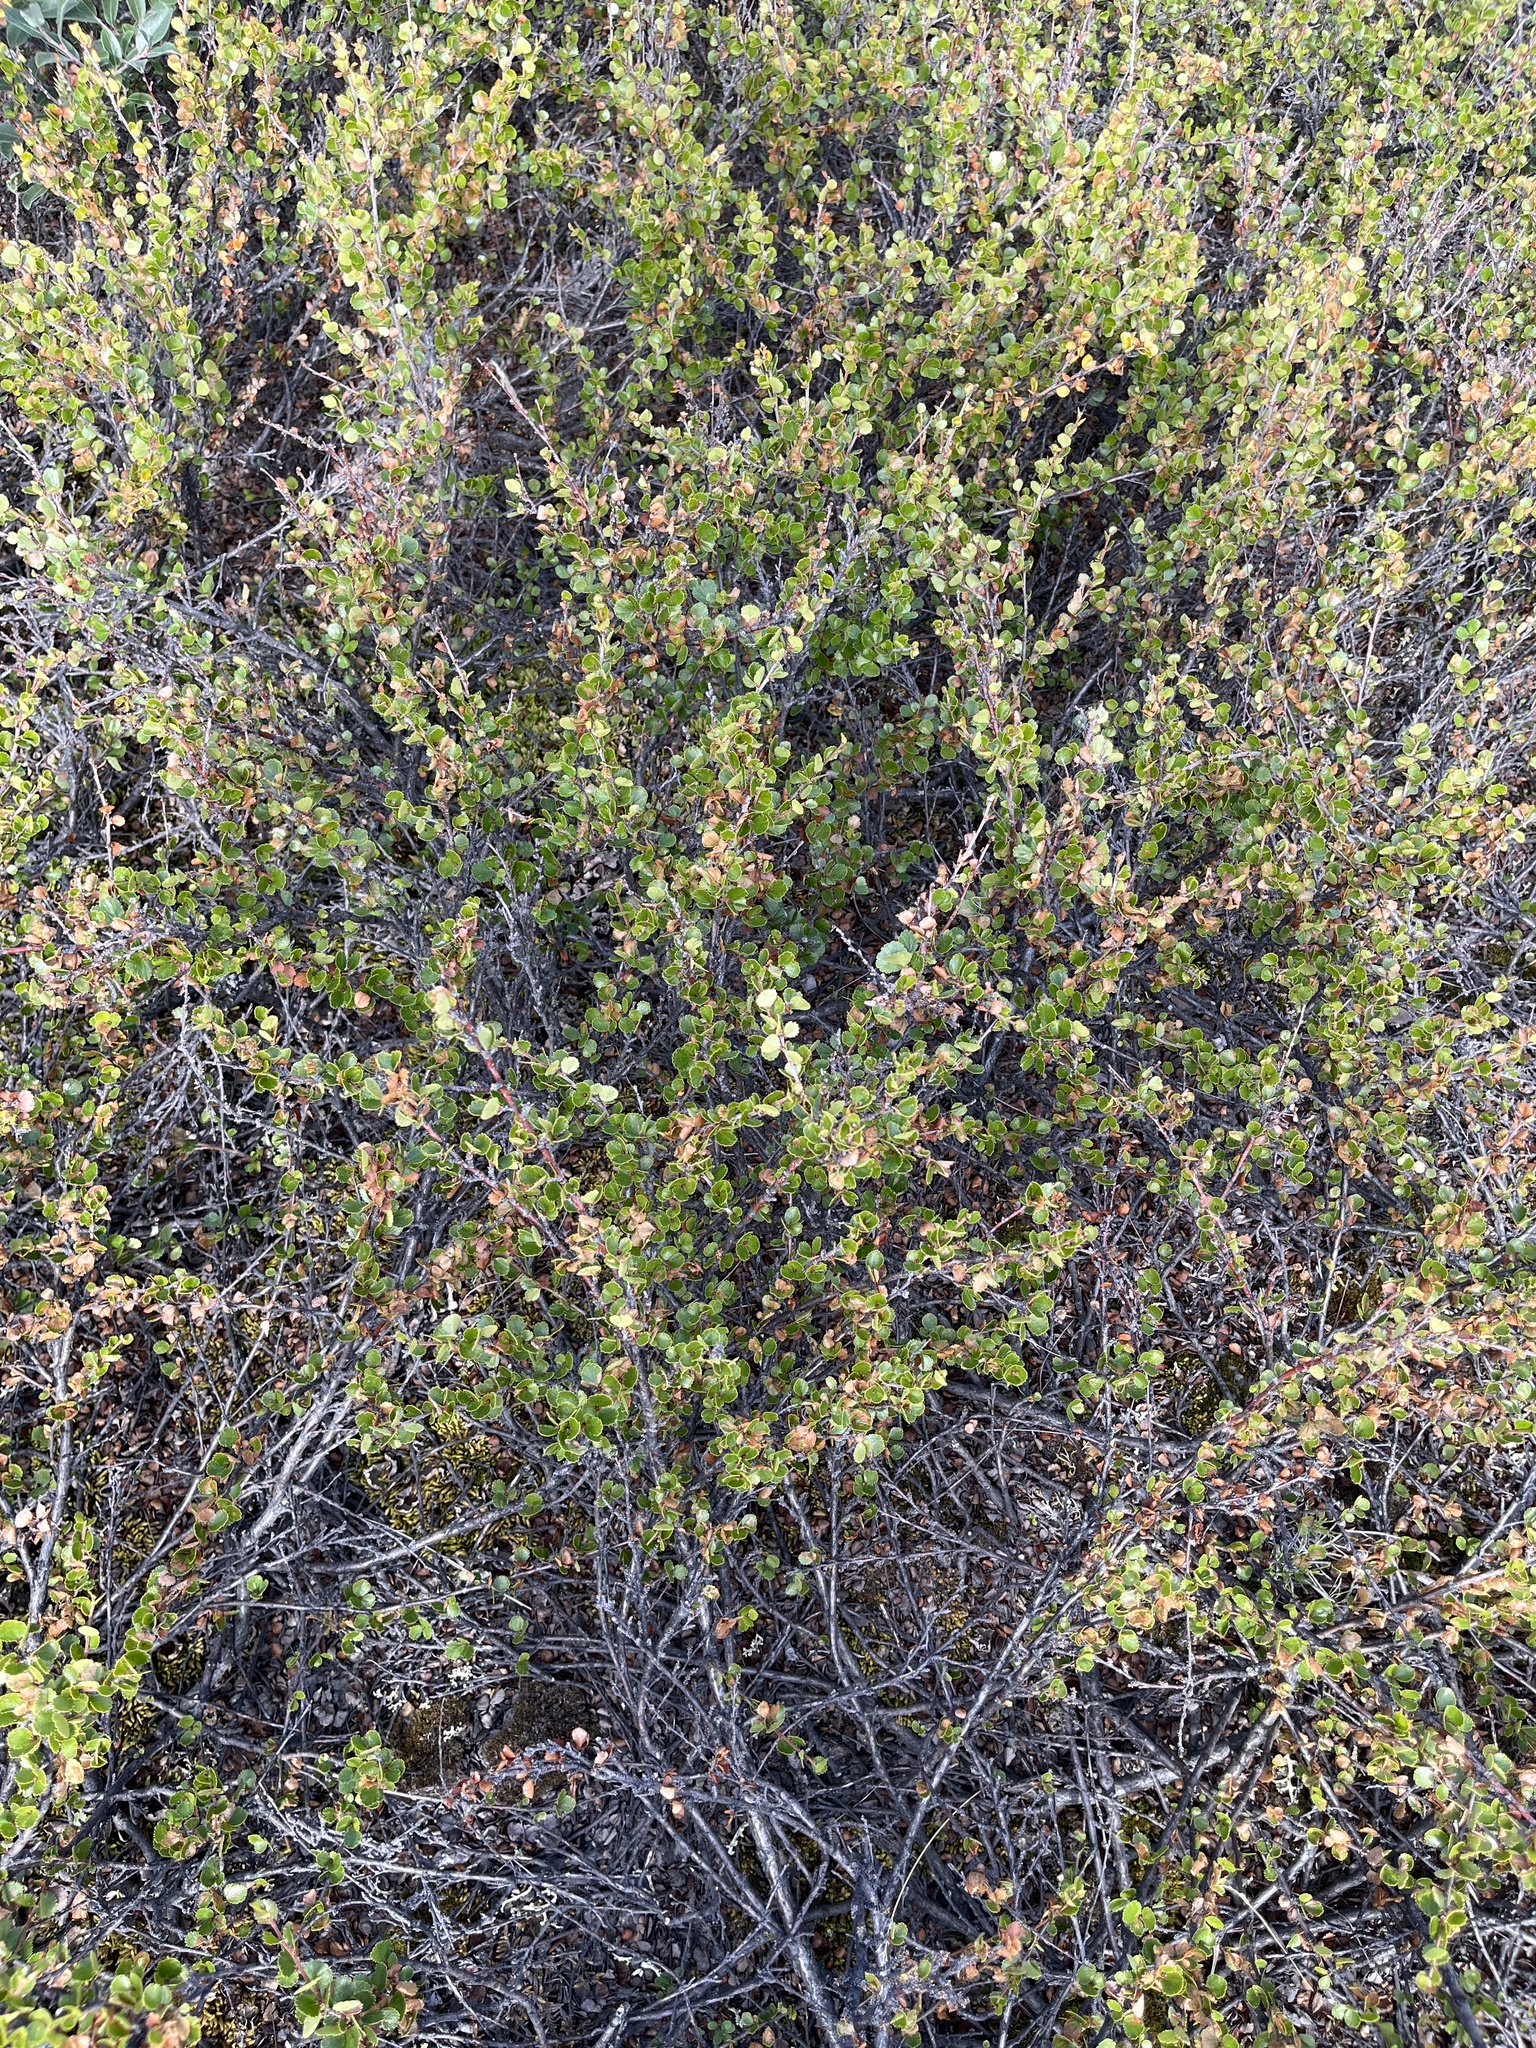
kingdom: Plantae
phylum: Tracheophyta
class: Magnoliopsida
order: Fagales
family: Betulaceae
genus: Betula
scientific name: Betula nana
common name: Arctic dwarf birch
